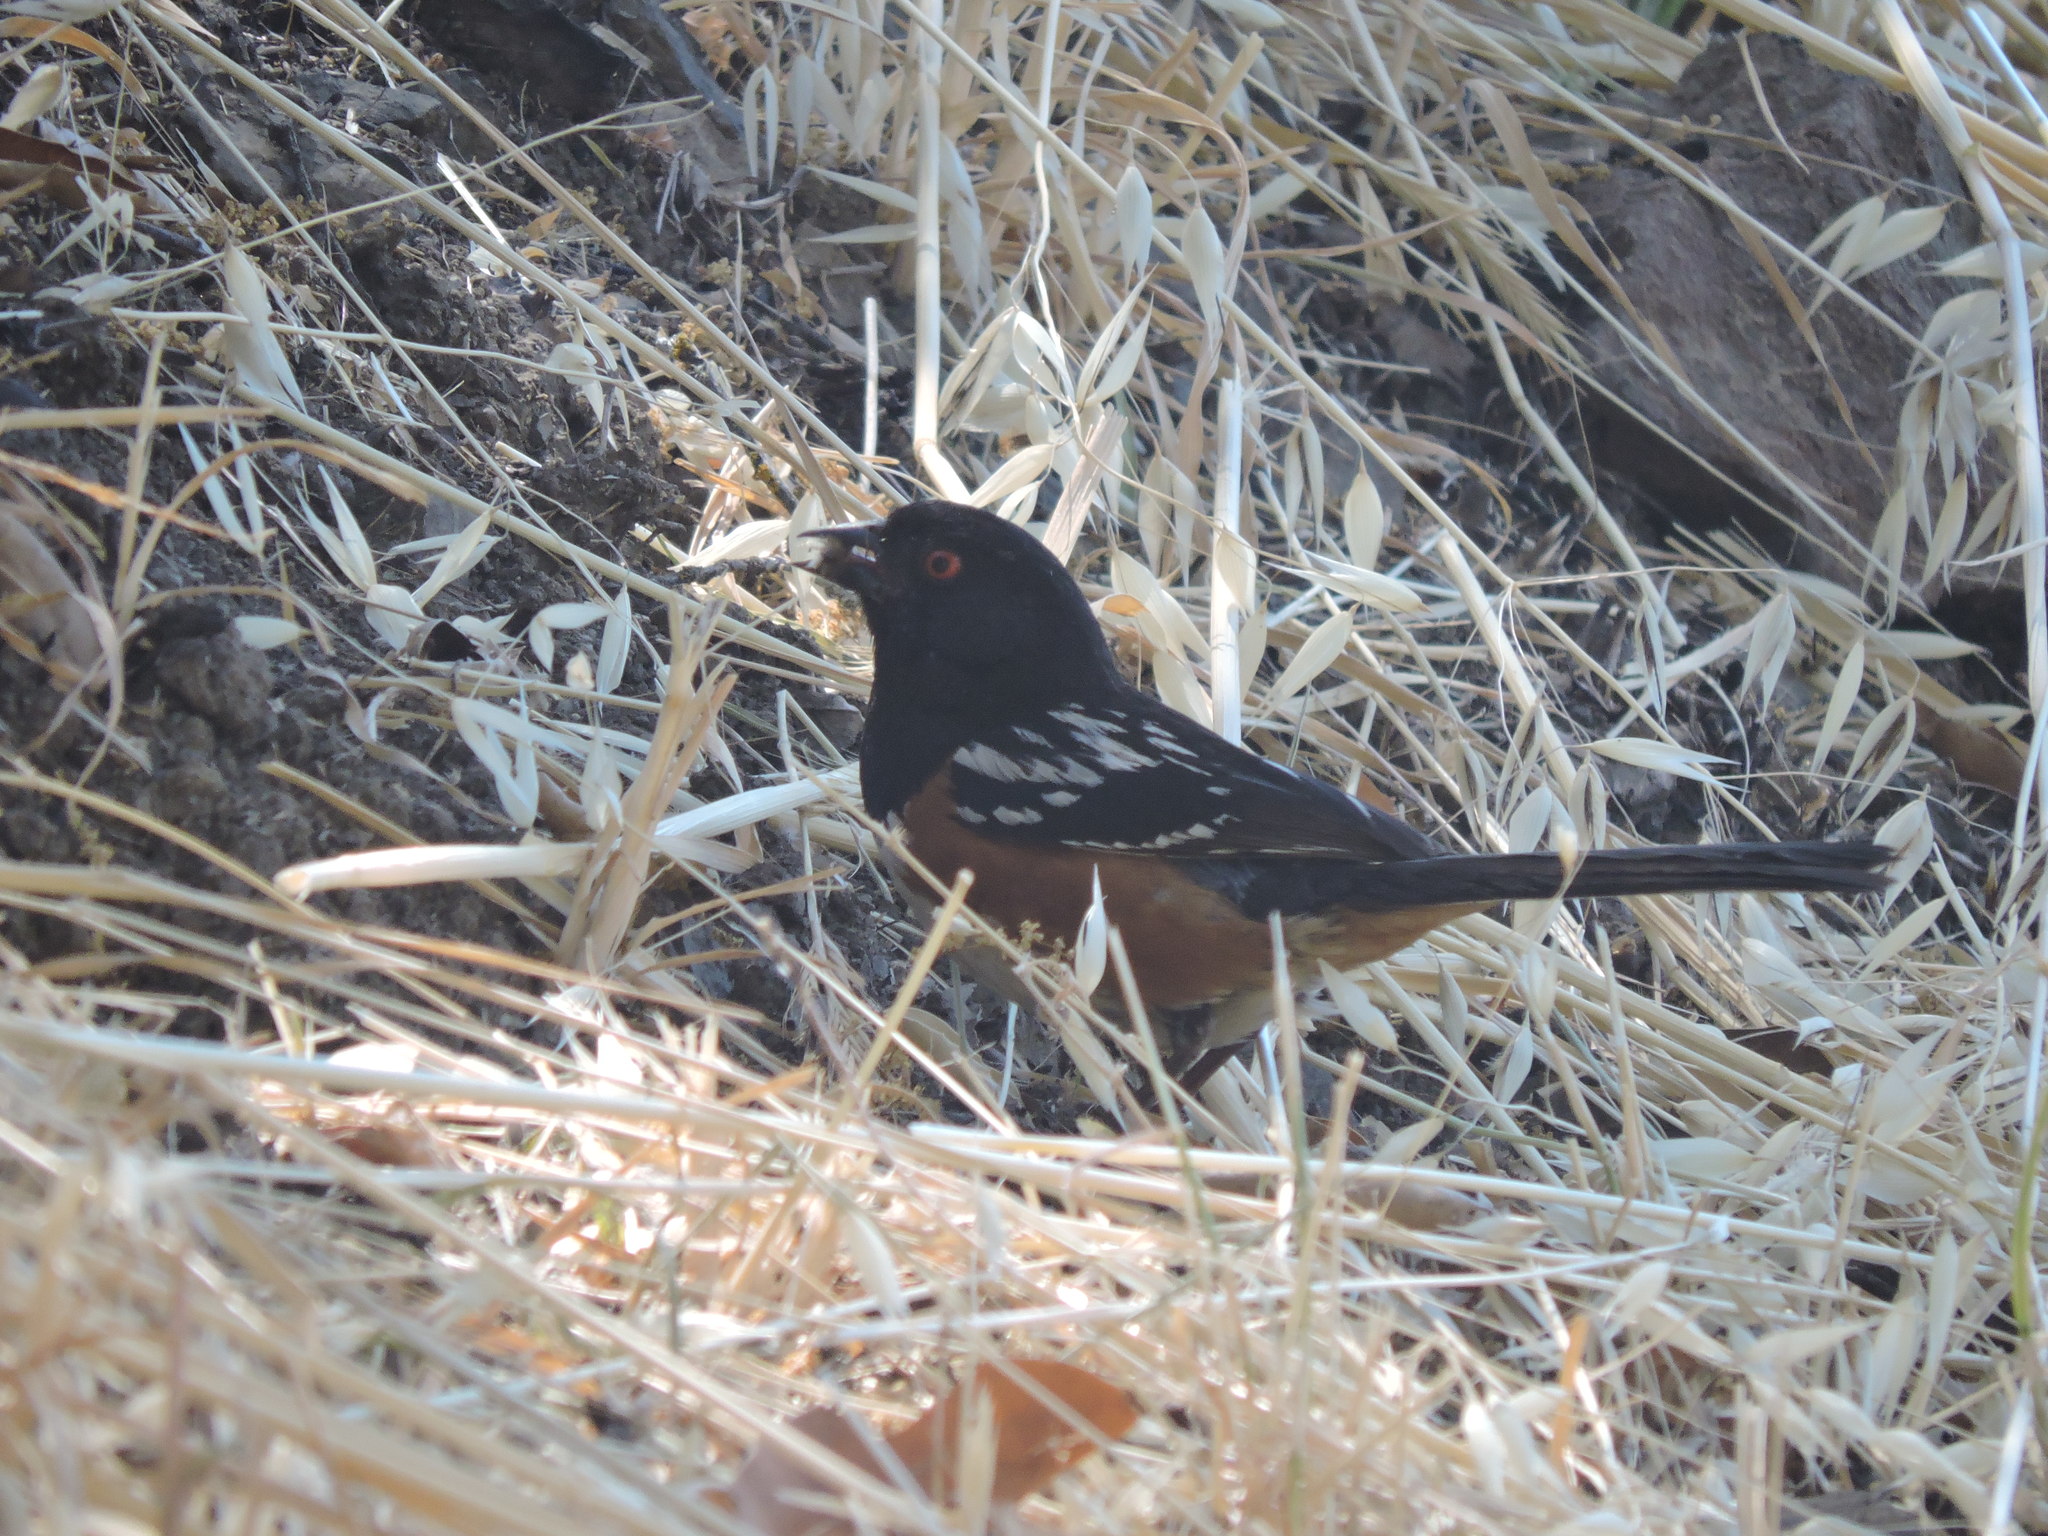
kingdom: Animalia
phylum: Chordata
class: Aves
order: Passeriformes
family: Passerellidae
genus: Pipilo
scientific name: Pipilo maculatus
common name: Spotted towhee
